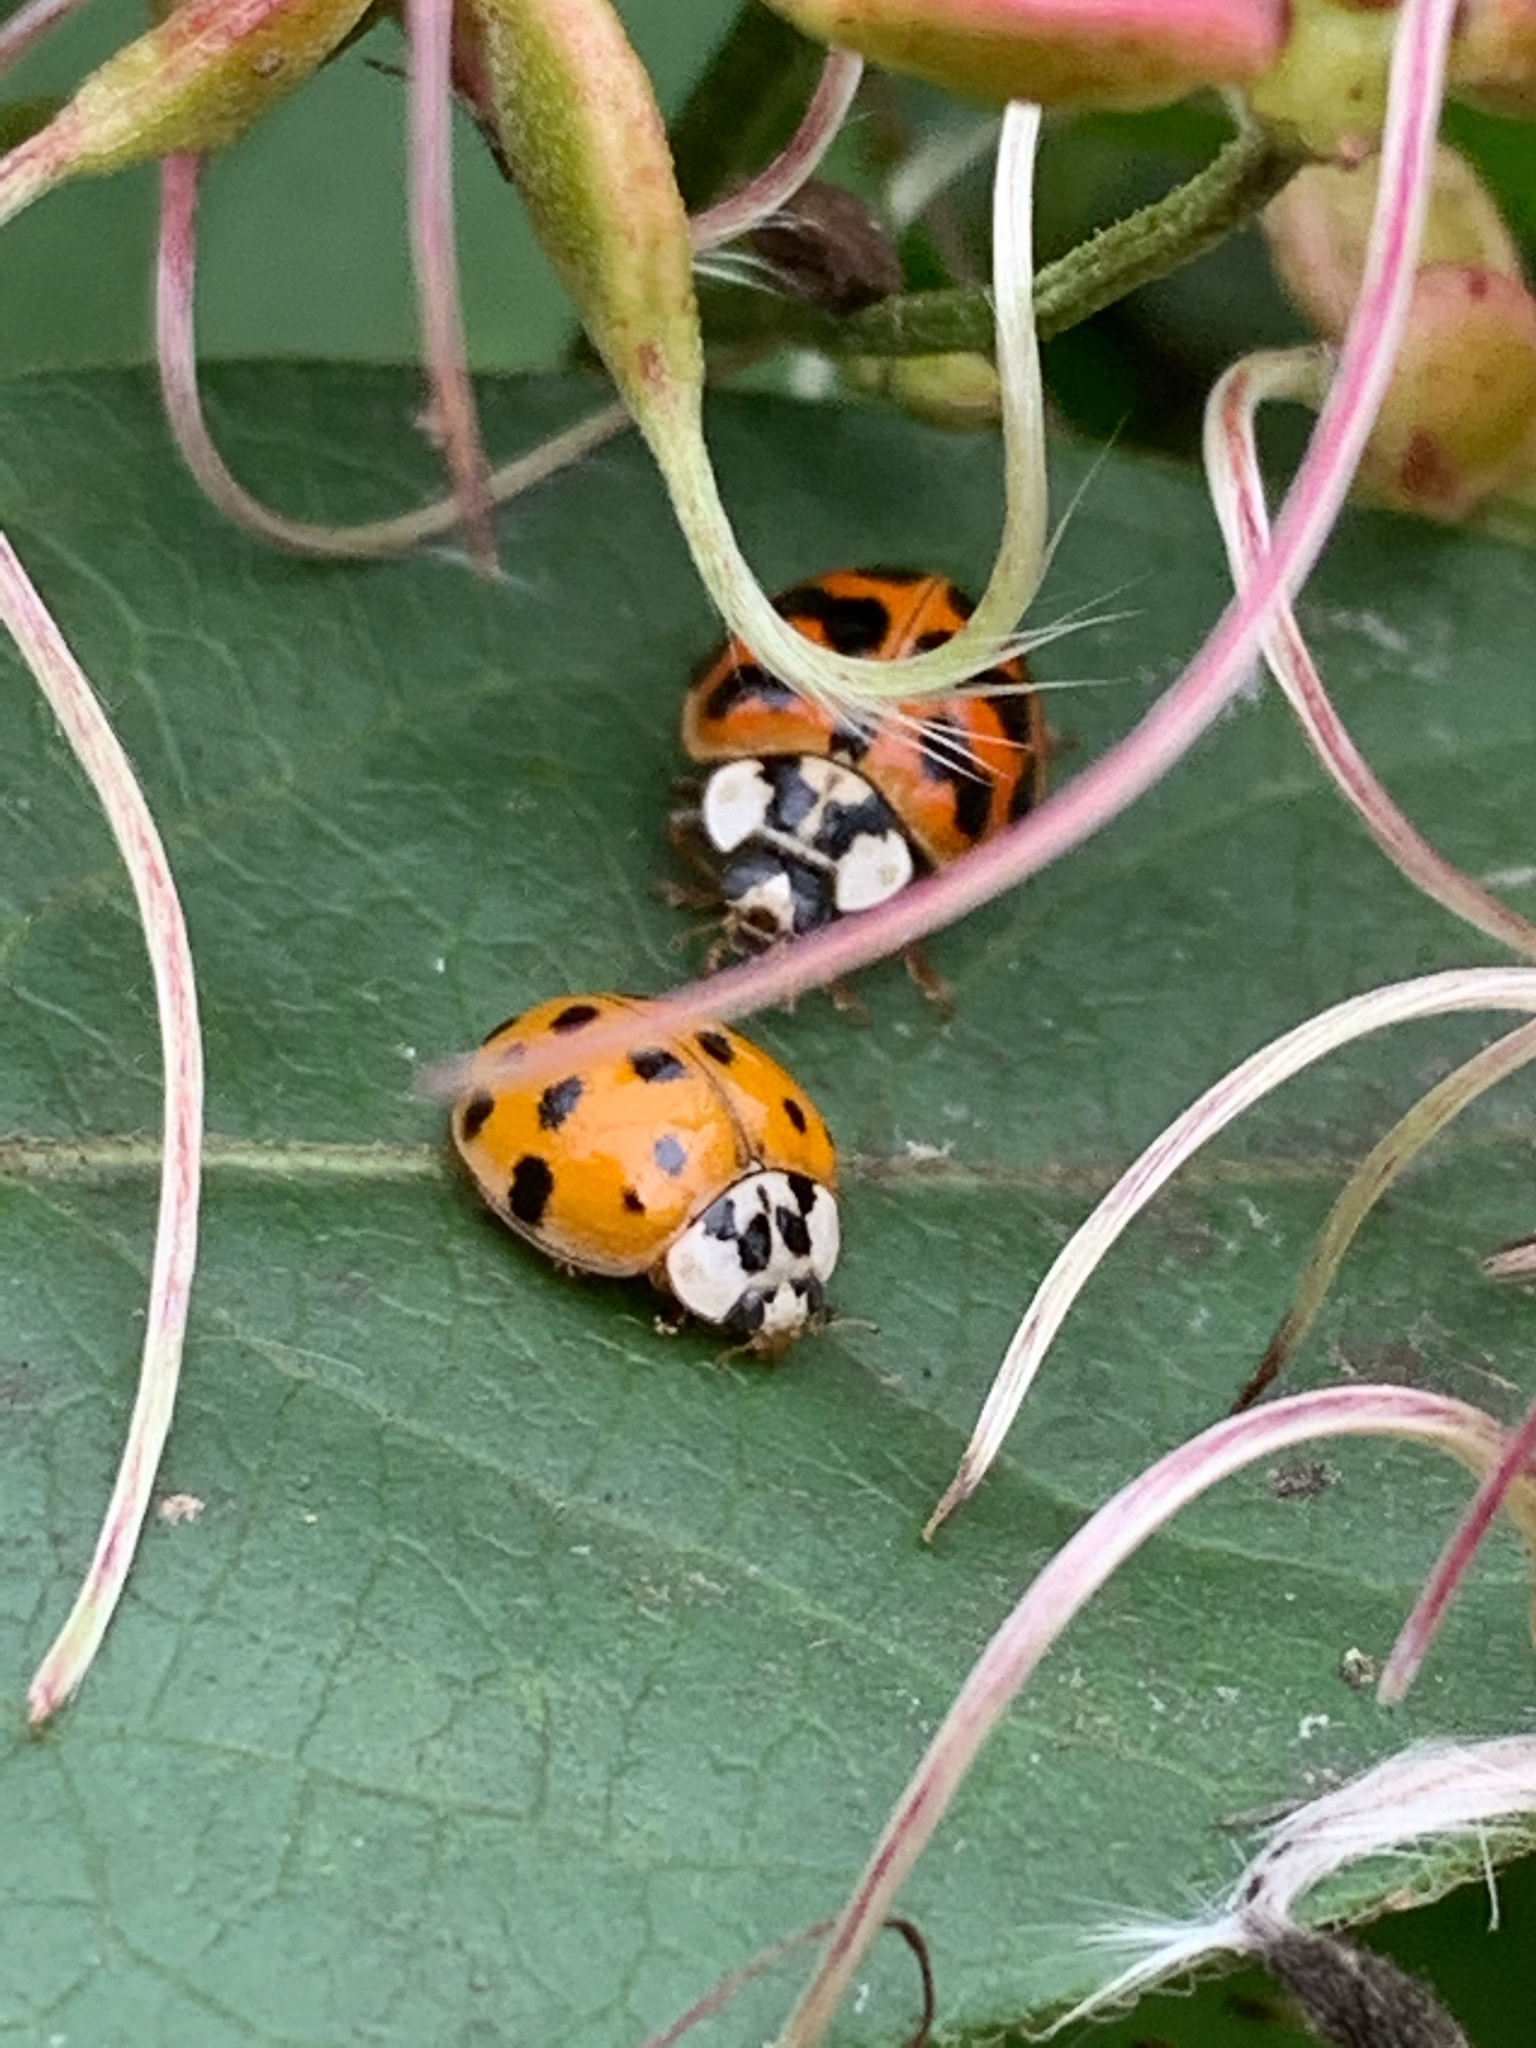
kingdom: Animalia
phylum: Arthropoda
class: Insecta
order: Coleoptera
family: Coccinellidae
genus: Harmonia
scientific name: Harmonia axyridis
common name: Harlequin ladybird
